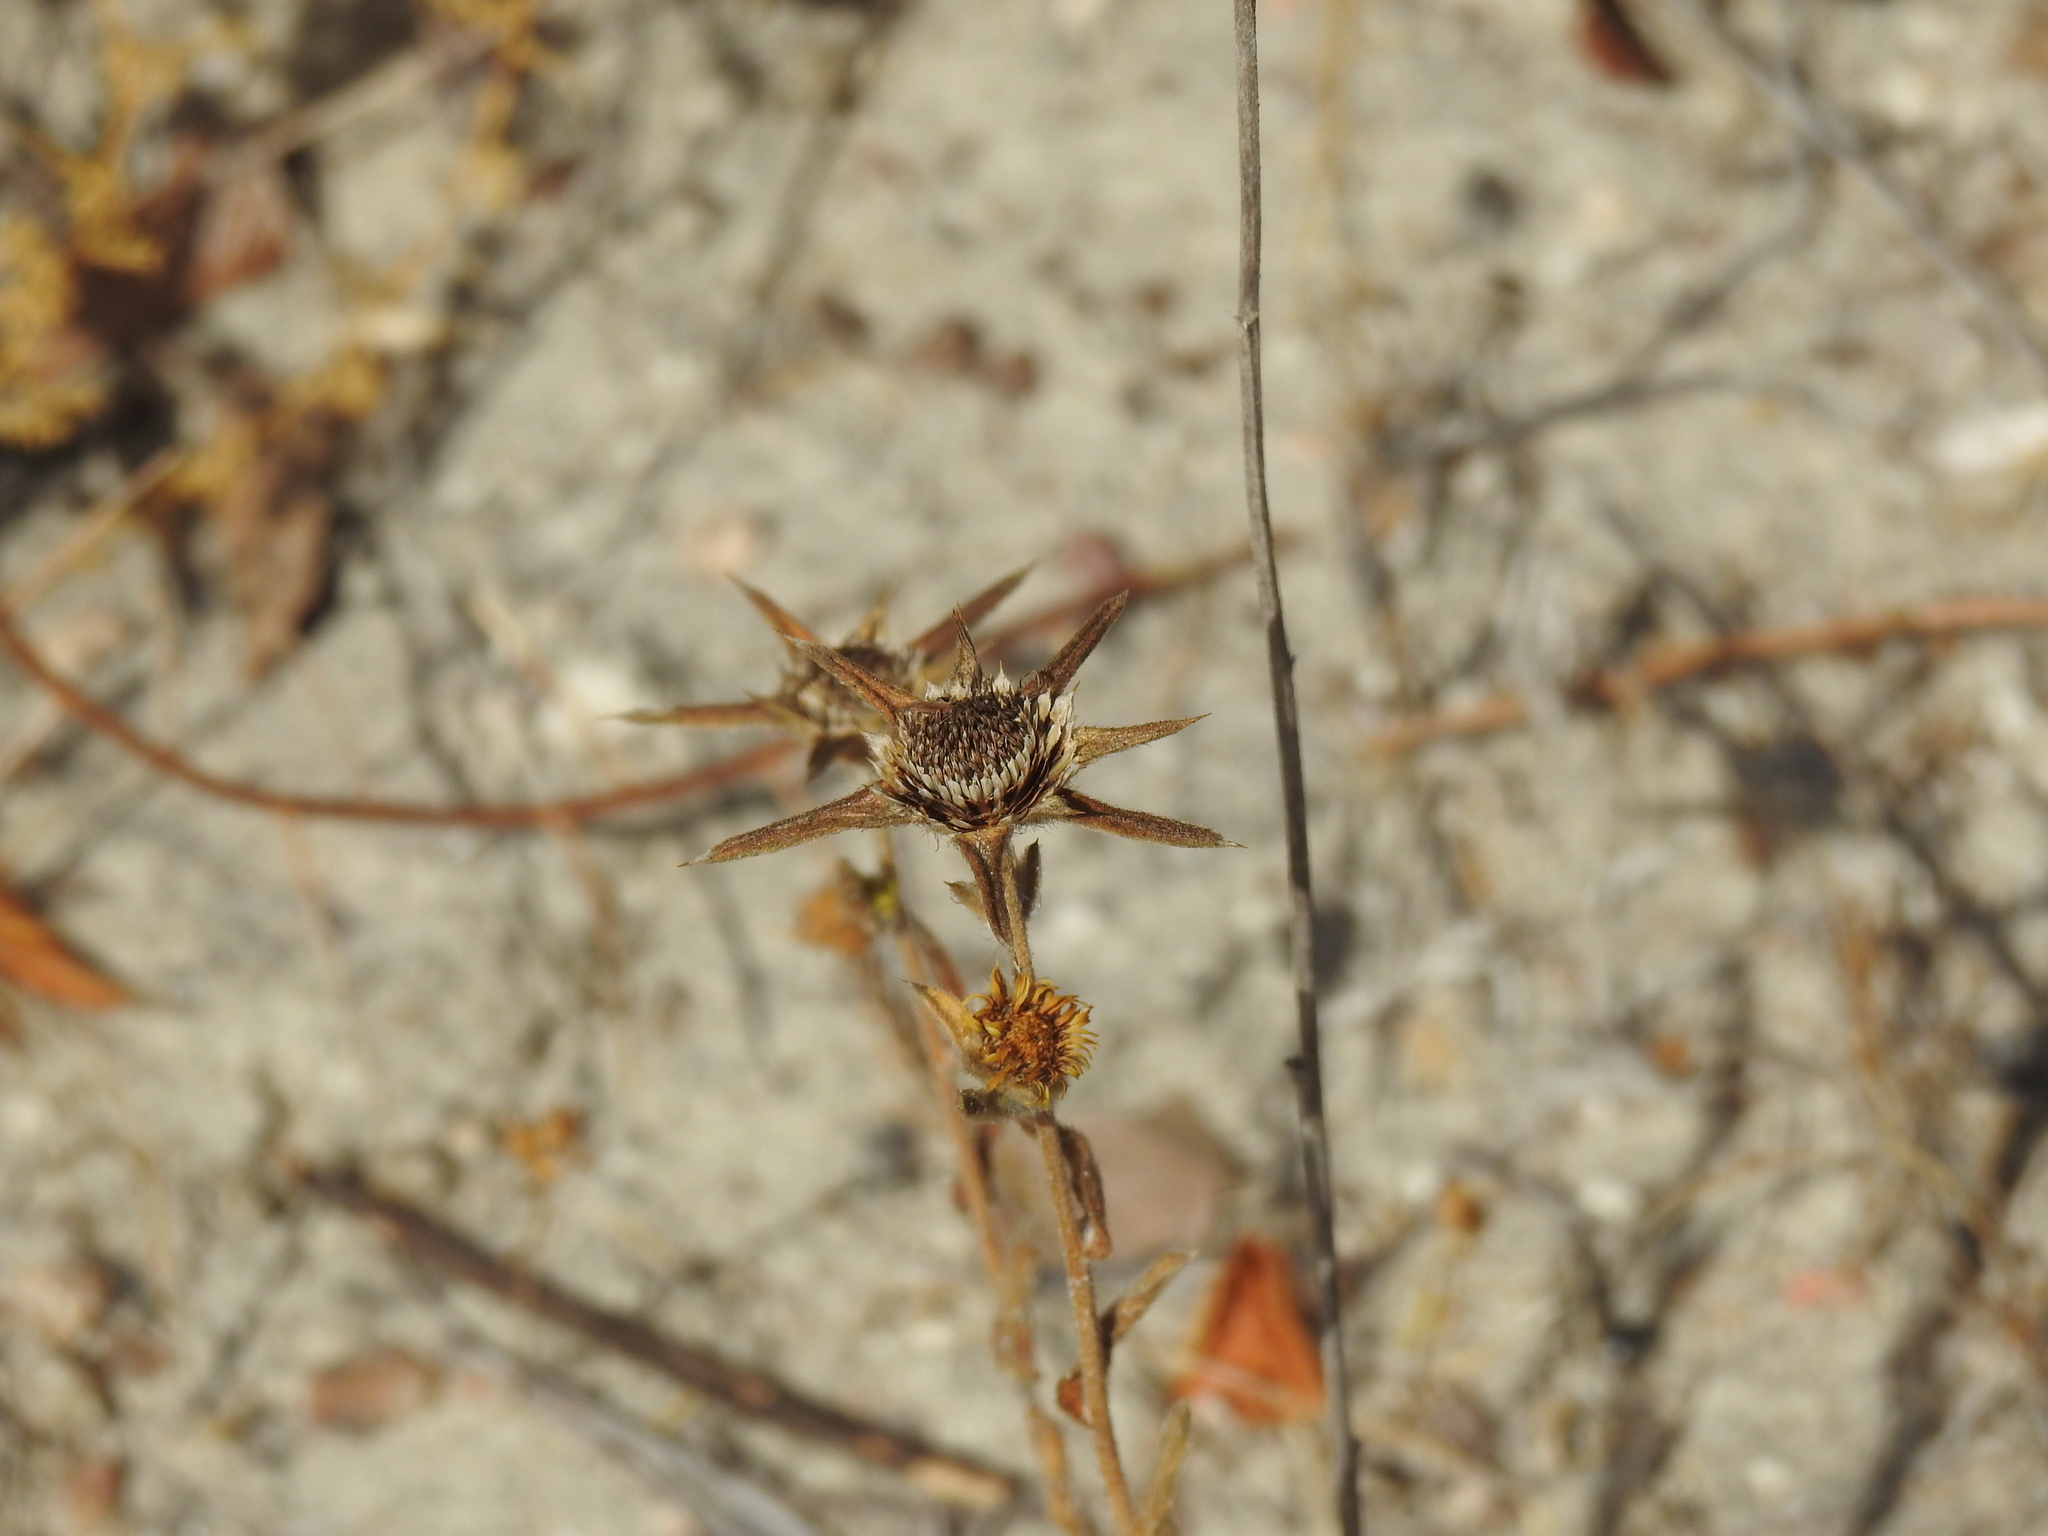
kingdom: Plantae
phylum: Tracheophyta
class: Magnoliopsida
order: Asterales
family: Asteraceae
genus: Pallenis
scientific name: Pallenis spinosa
